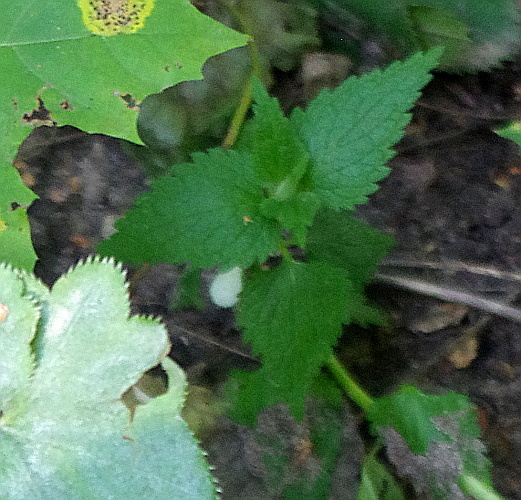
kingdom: Plantae
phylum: Tracheophyta
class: Magnoliopsida
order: Lamiales
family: Lamiaceae
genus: Lamium
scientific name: Lamium album
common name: White dead-nettle
